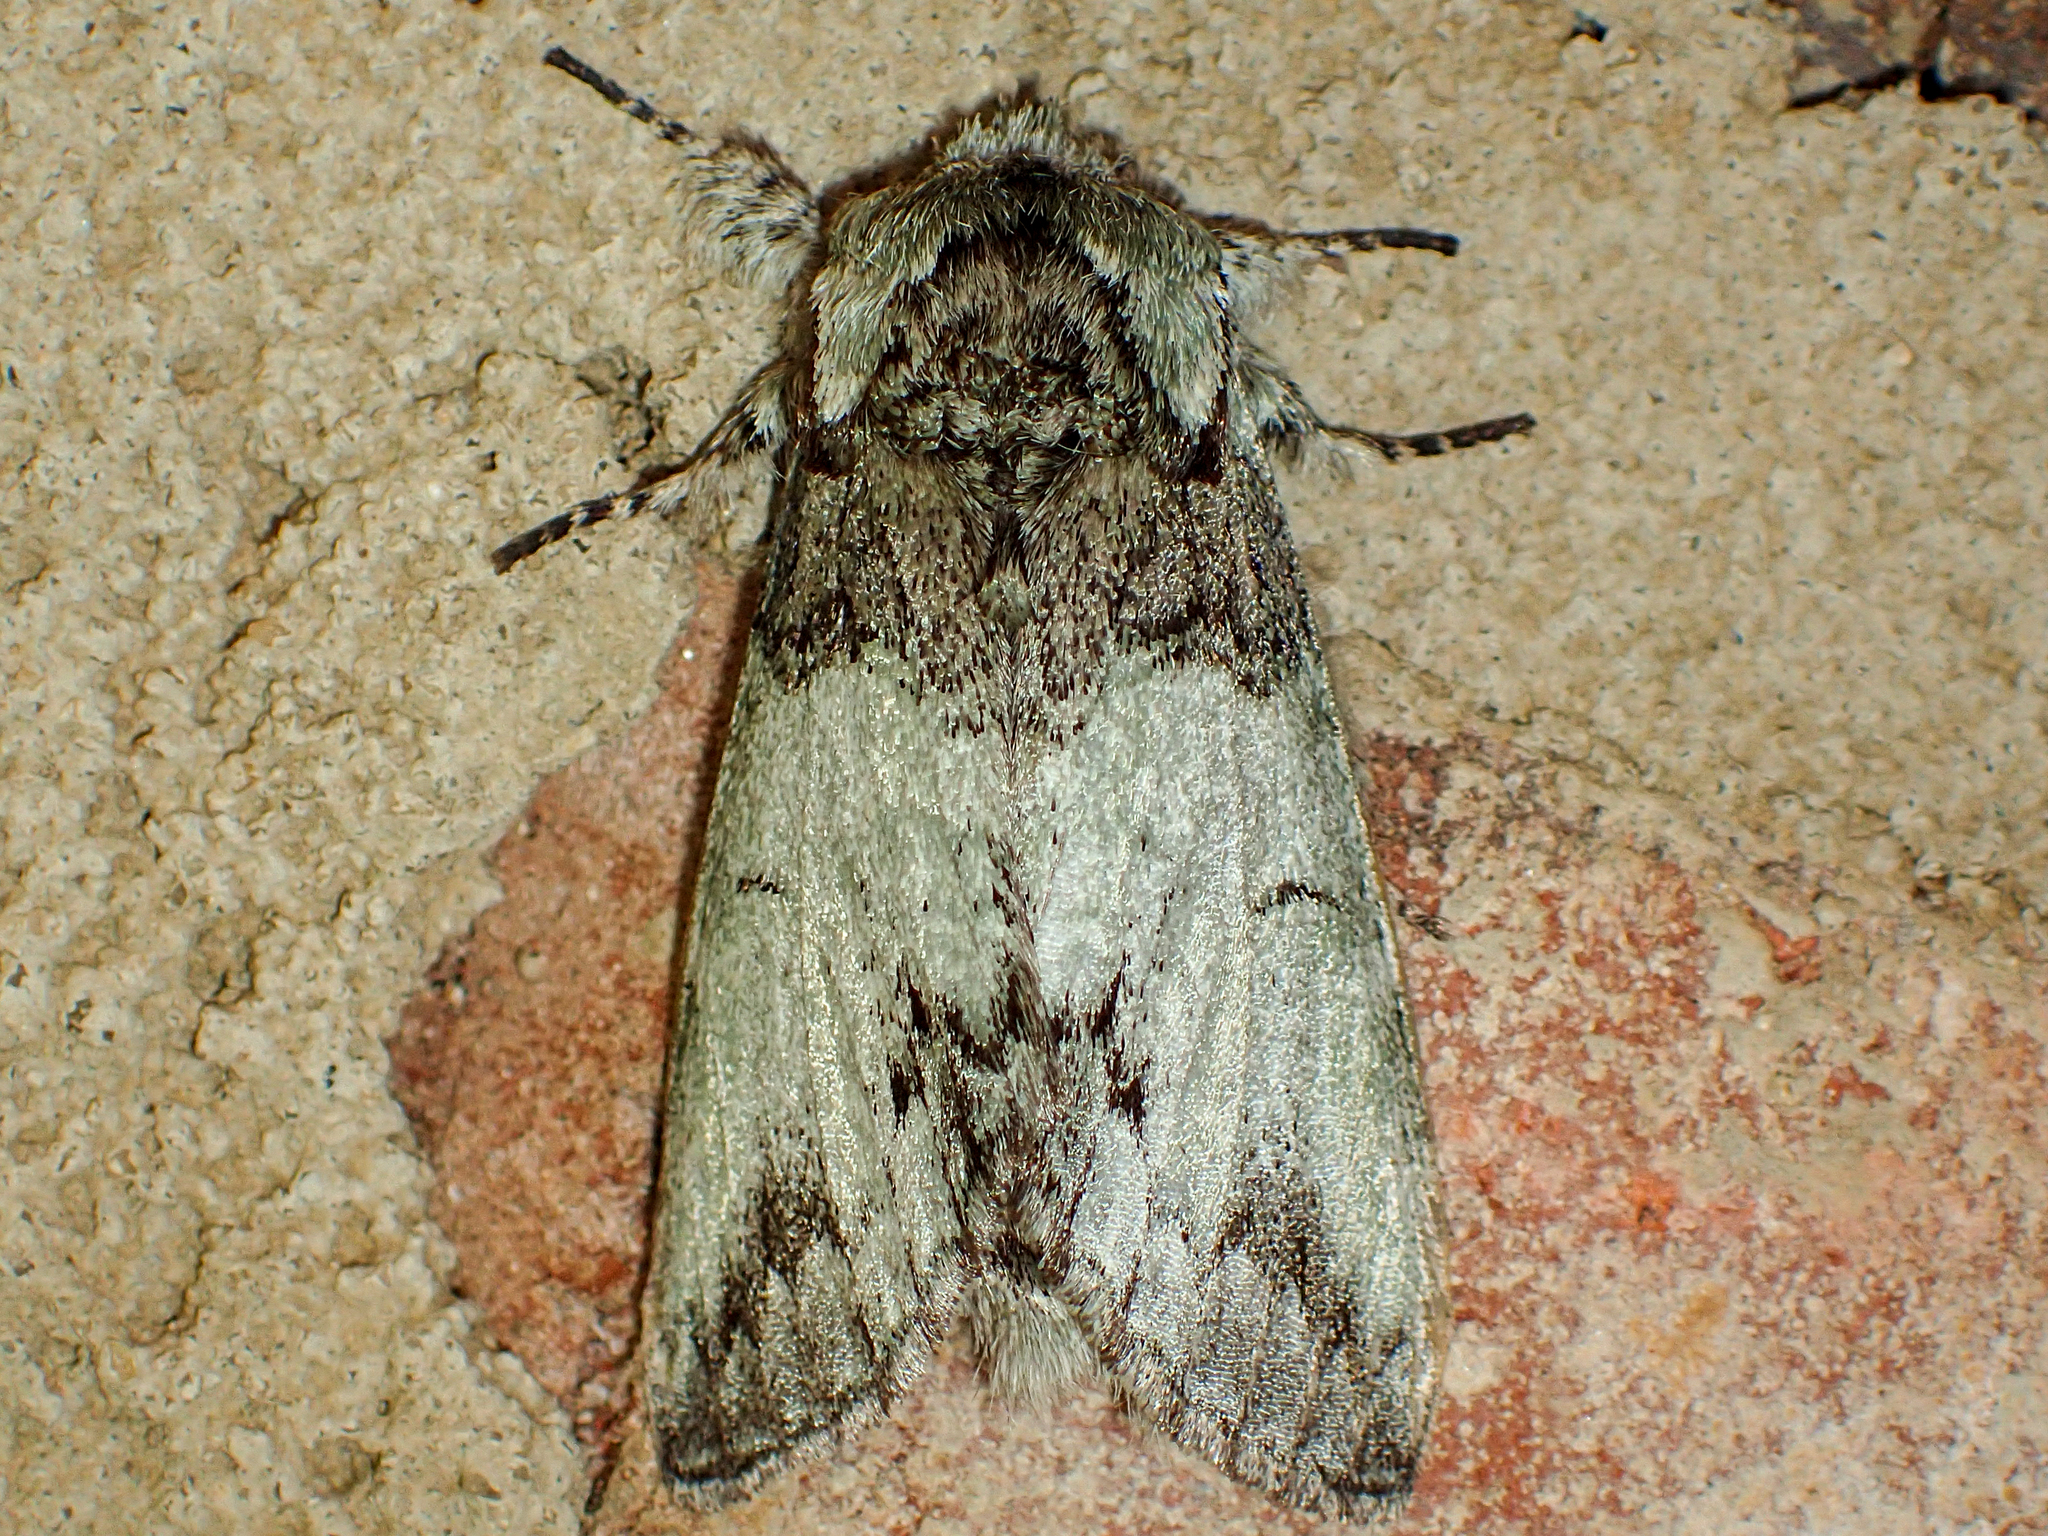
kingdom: Animalia
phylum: Arthropoda
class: Insecta
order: Lepidoptera
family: Notodontidae
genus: Macrurocampa
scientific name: Macrurocampa marthesia
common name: Mottled prominent
